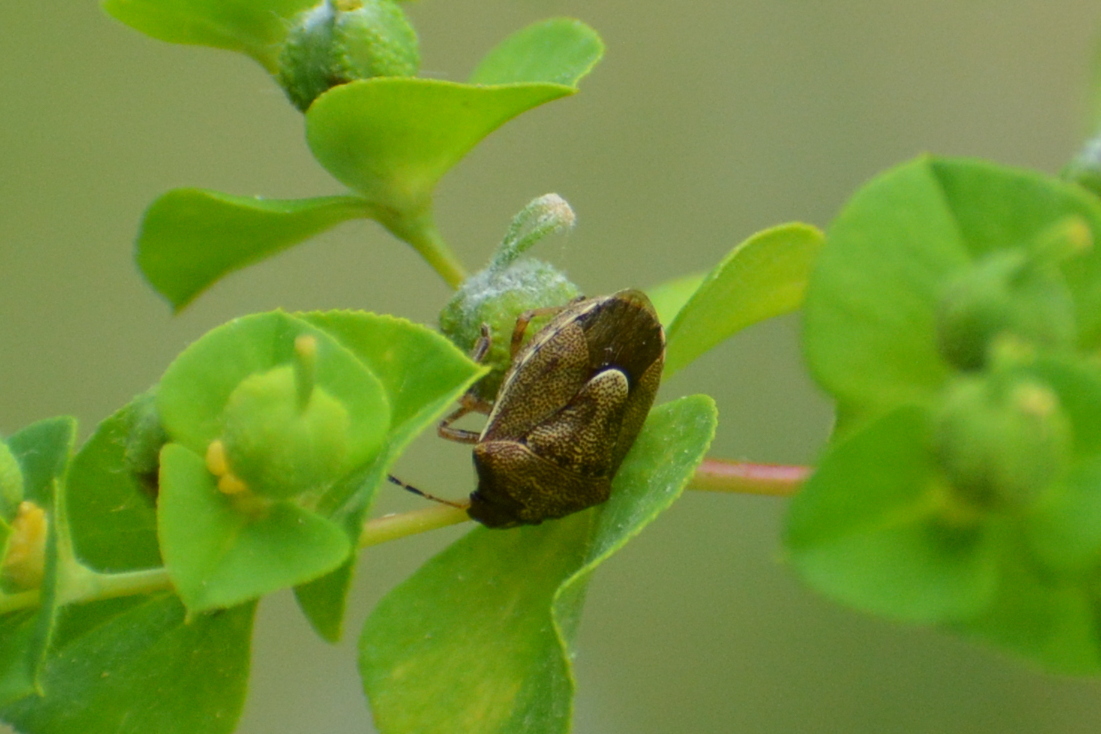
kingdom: Animalia
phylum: Arthropoda
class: Insecta
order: Hemiptera
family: Pentatomidae
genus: Rubiconia
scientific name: Rubiconia intermedia
